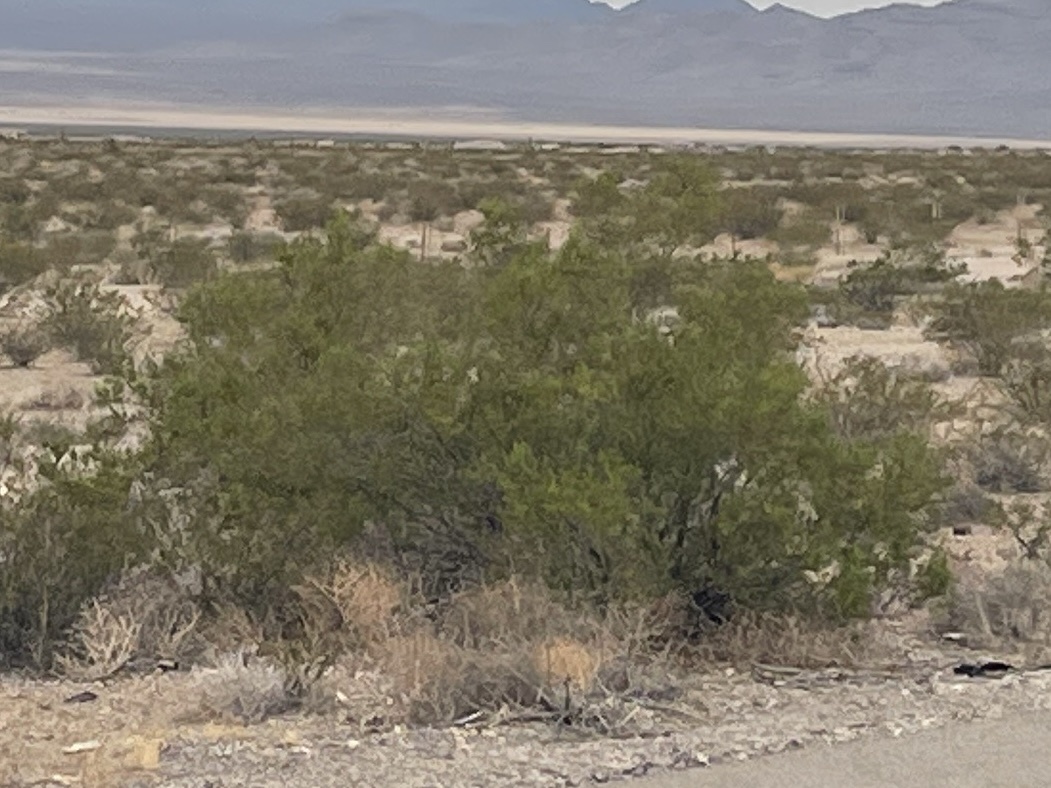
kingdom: Plantae
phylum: Tracheophyta
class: Magnoliopsida
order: Zygophyllales
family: Zygophyllaceae
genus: Larrea
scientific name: Larrea tridentata
